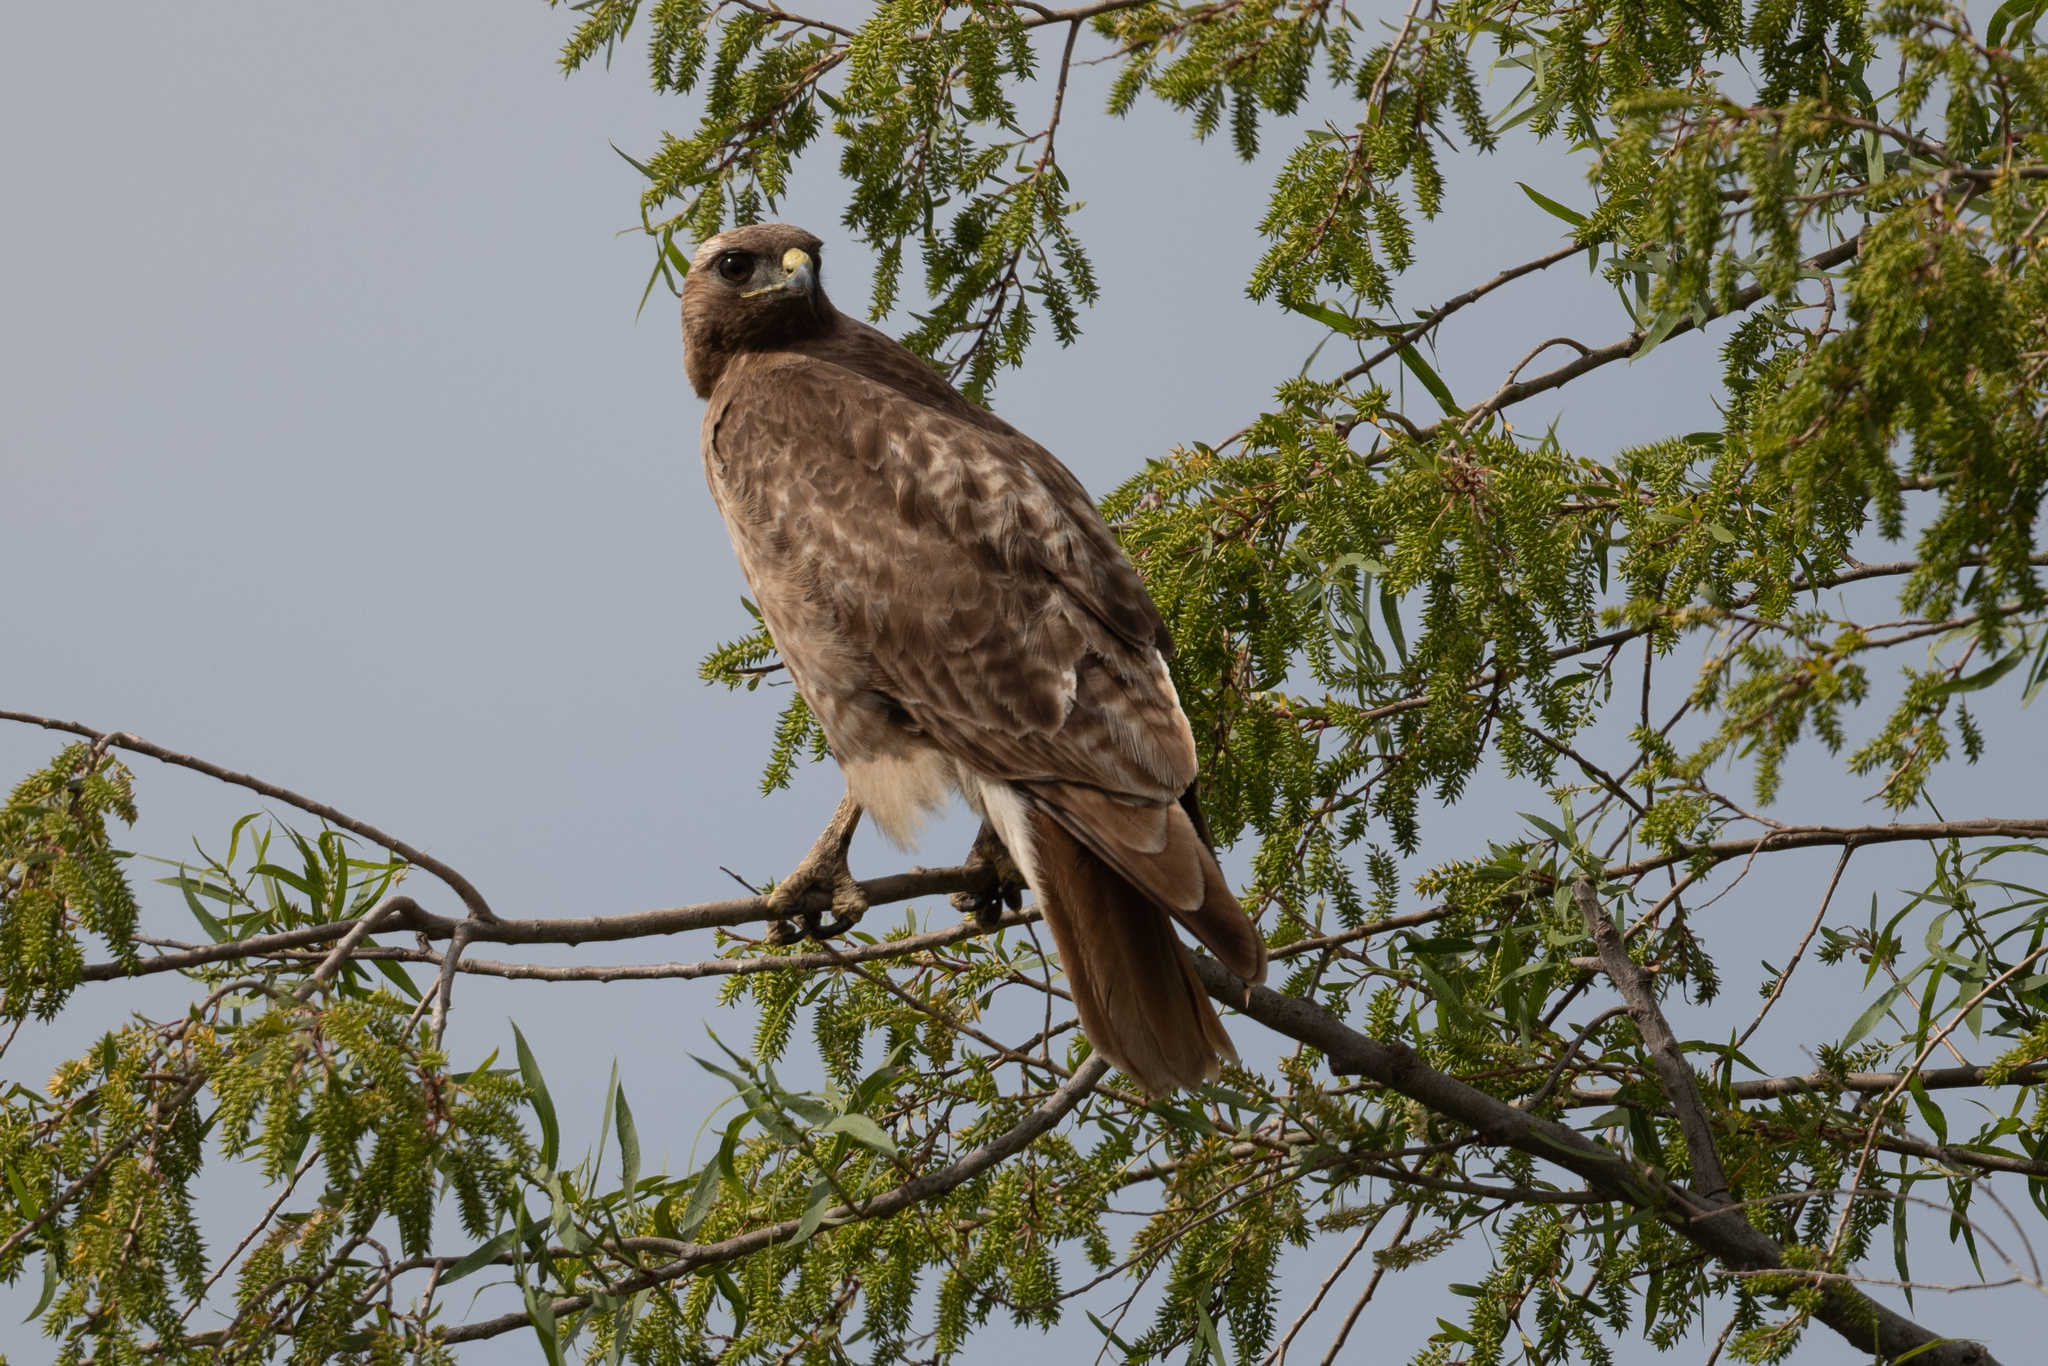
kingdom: Animalia
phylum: Chordata
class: Aves
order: Accipitriformes
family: Accipitridae
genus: Buteo
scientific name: Buteo jamaicensis
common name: Red-tailed hawk
